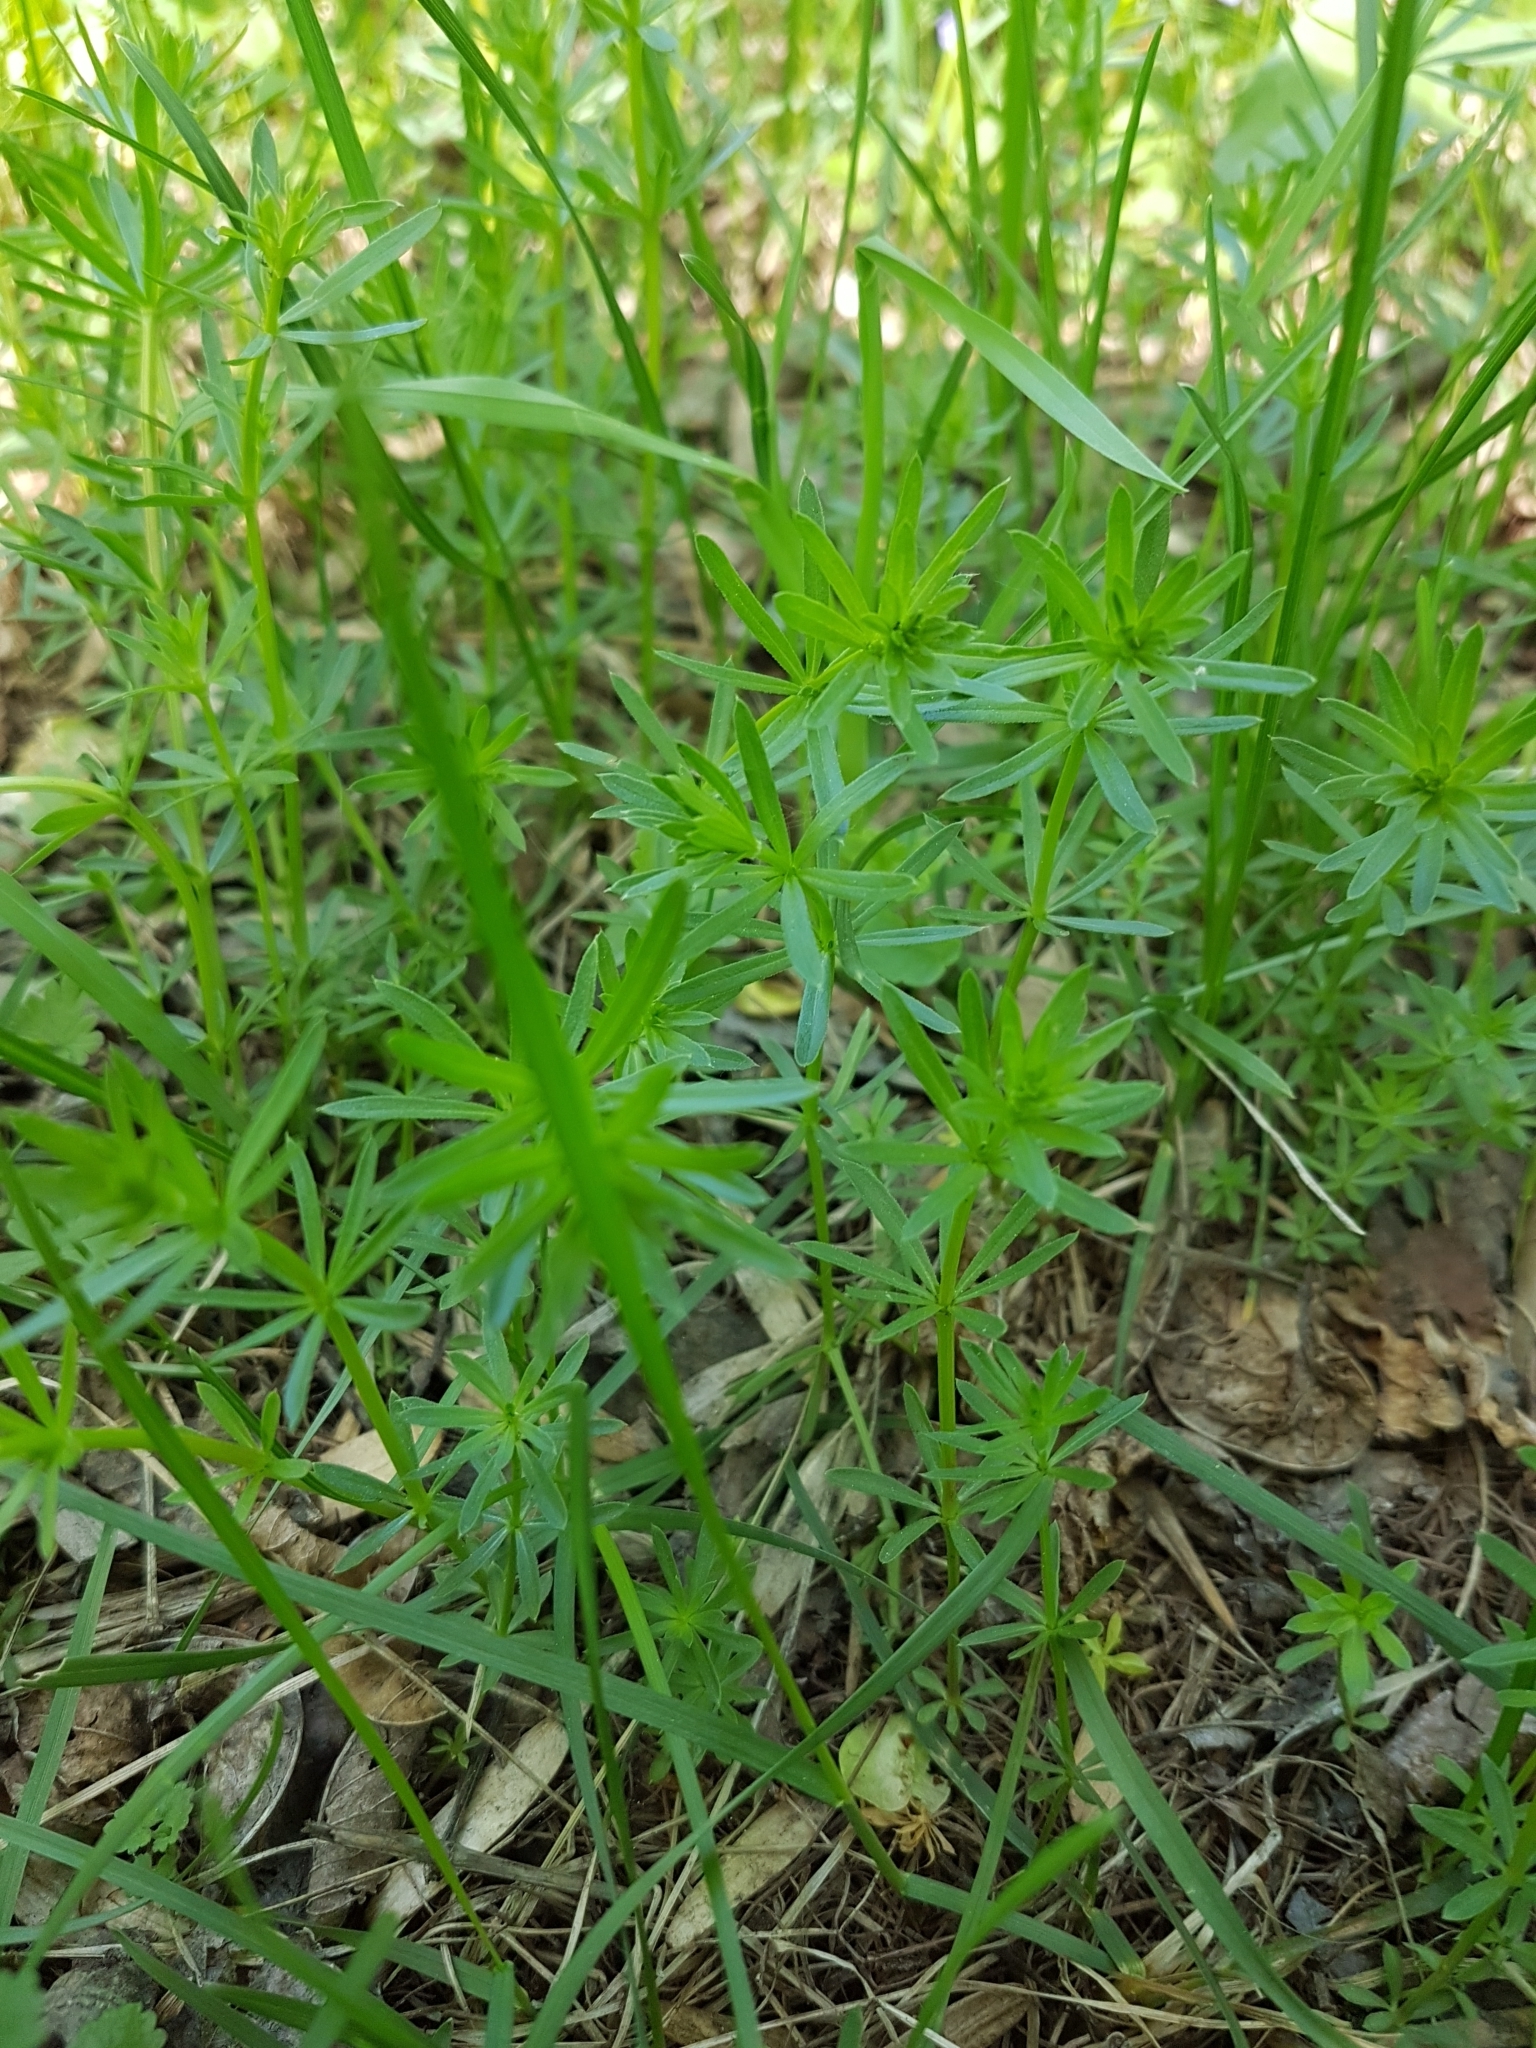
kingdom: Plantae
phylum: Tracheophyta
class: Magnoliopsida
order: Gentianales
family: Rubiaceae
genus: Galium
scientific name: Galium mollugo
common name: Hedge bedstraw
